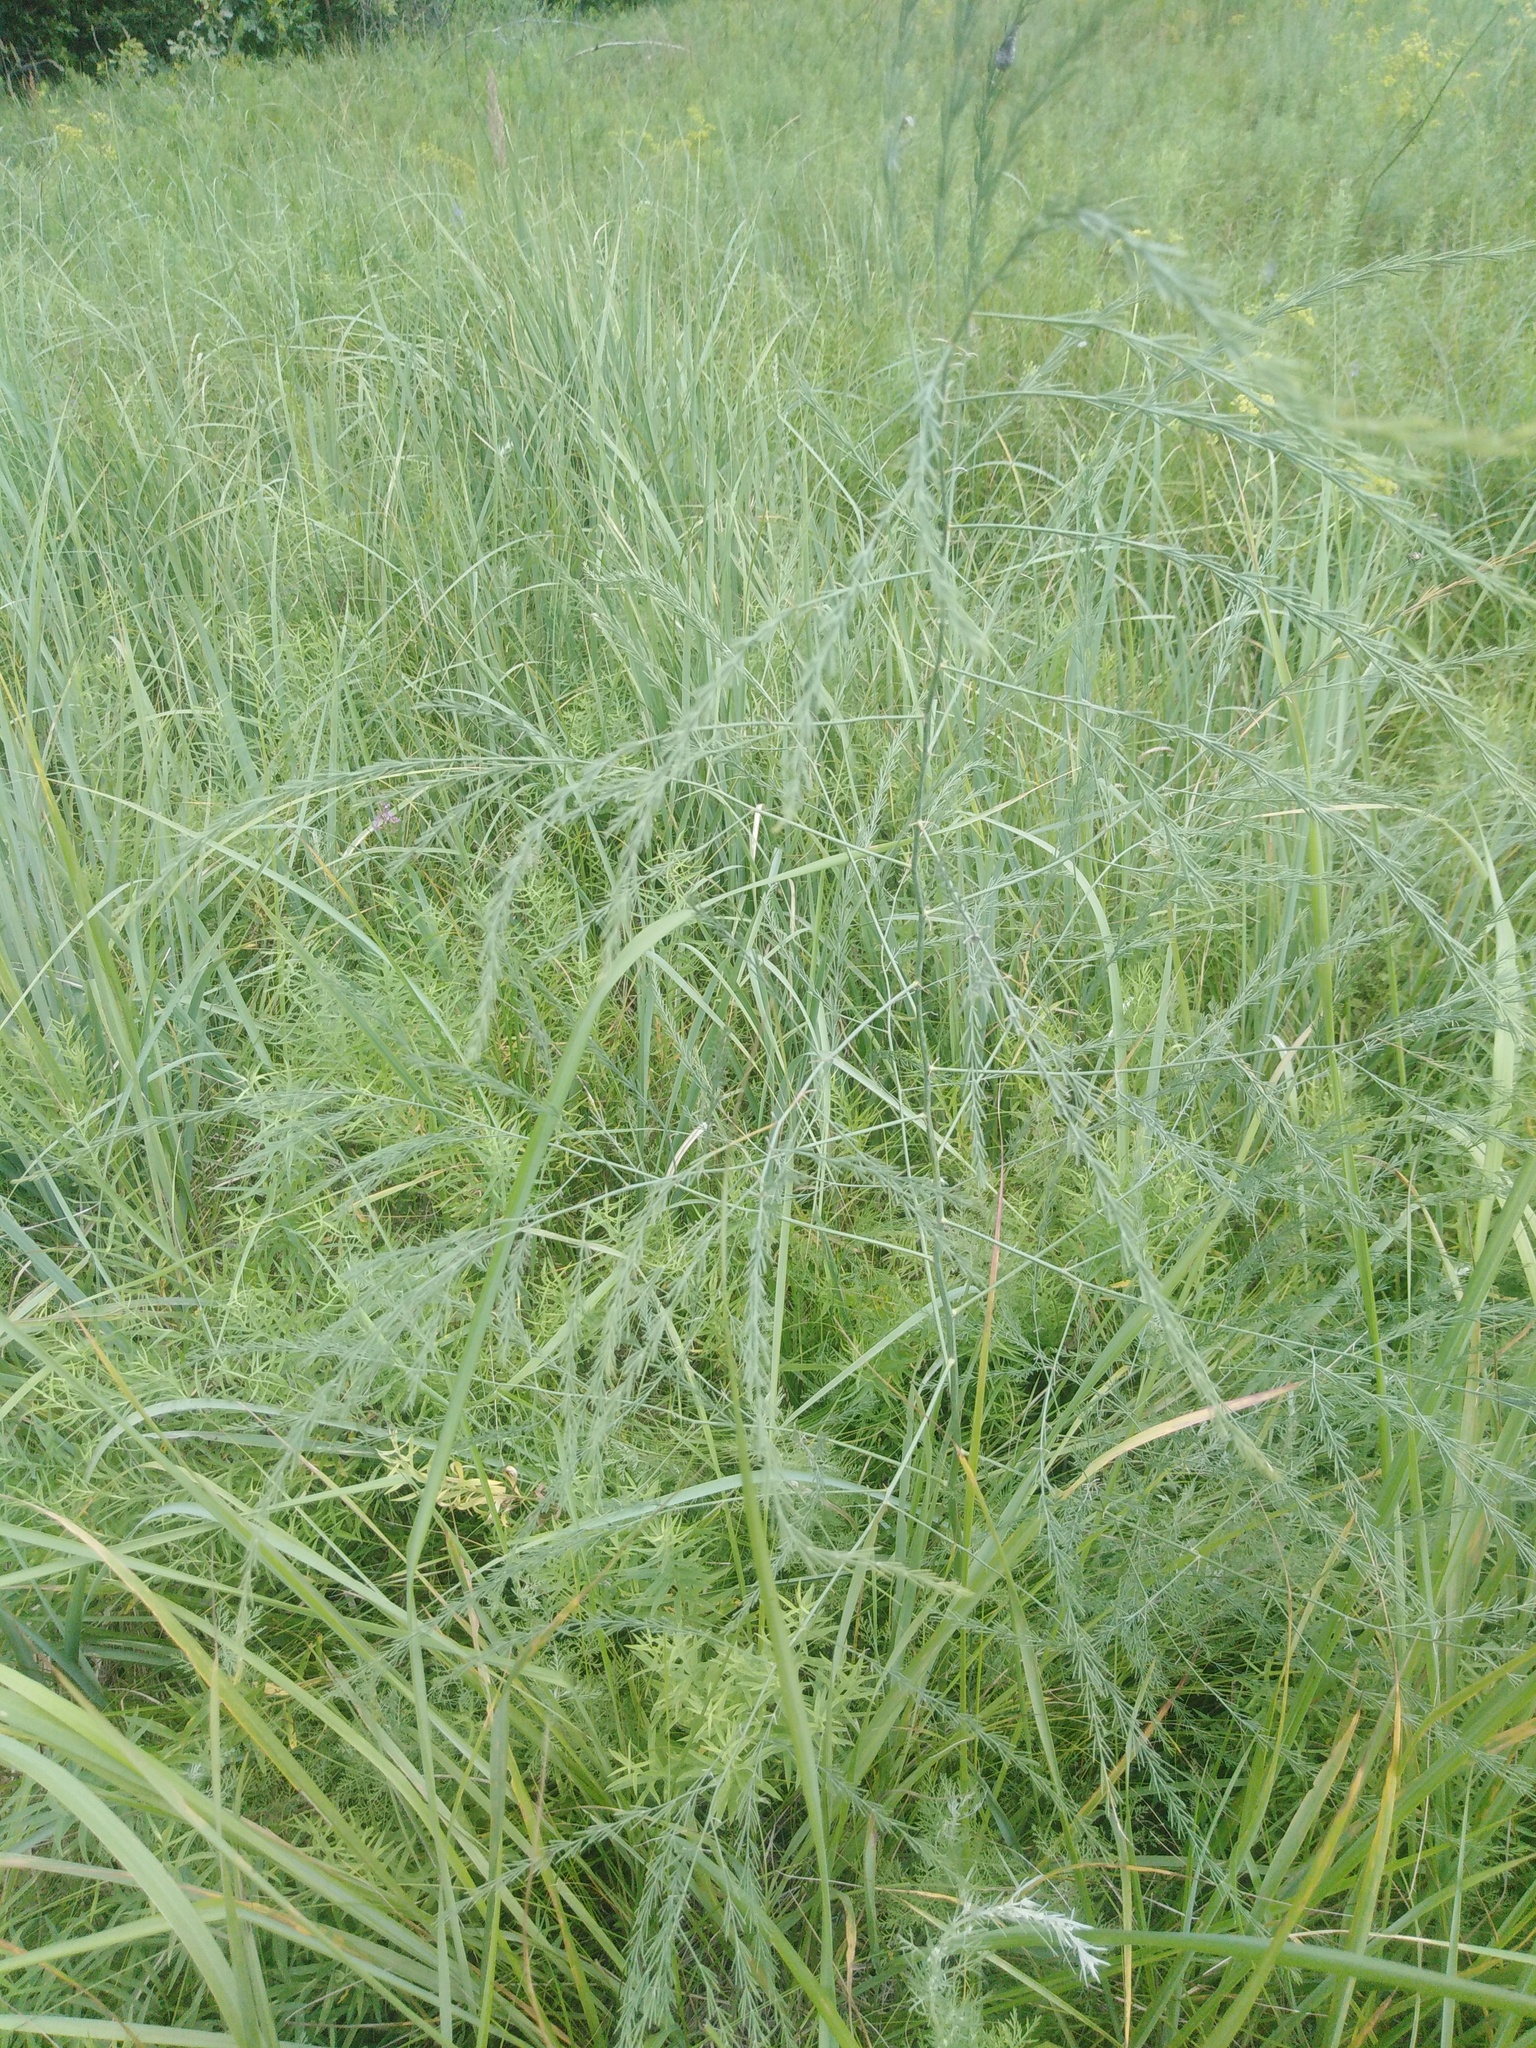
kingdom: Plantae
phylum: Tracheophyta
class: Liliopsida
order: Asparagales
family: Asparagaceae
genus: Asparagus
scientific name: Asparagus officinalis
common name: Garden asparagus
